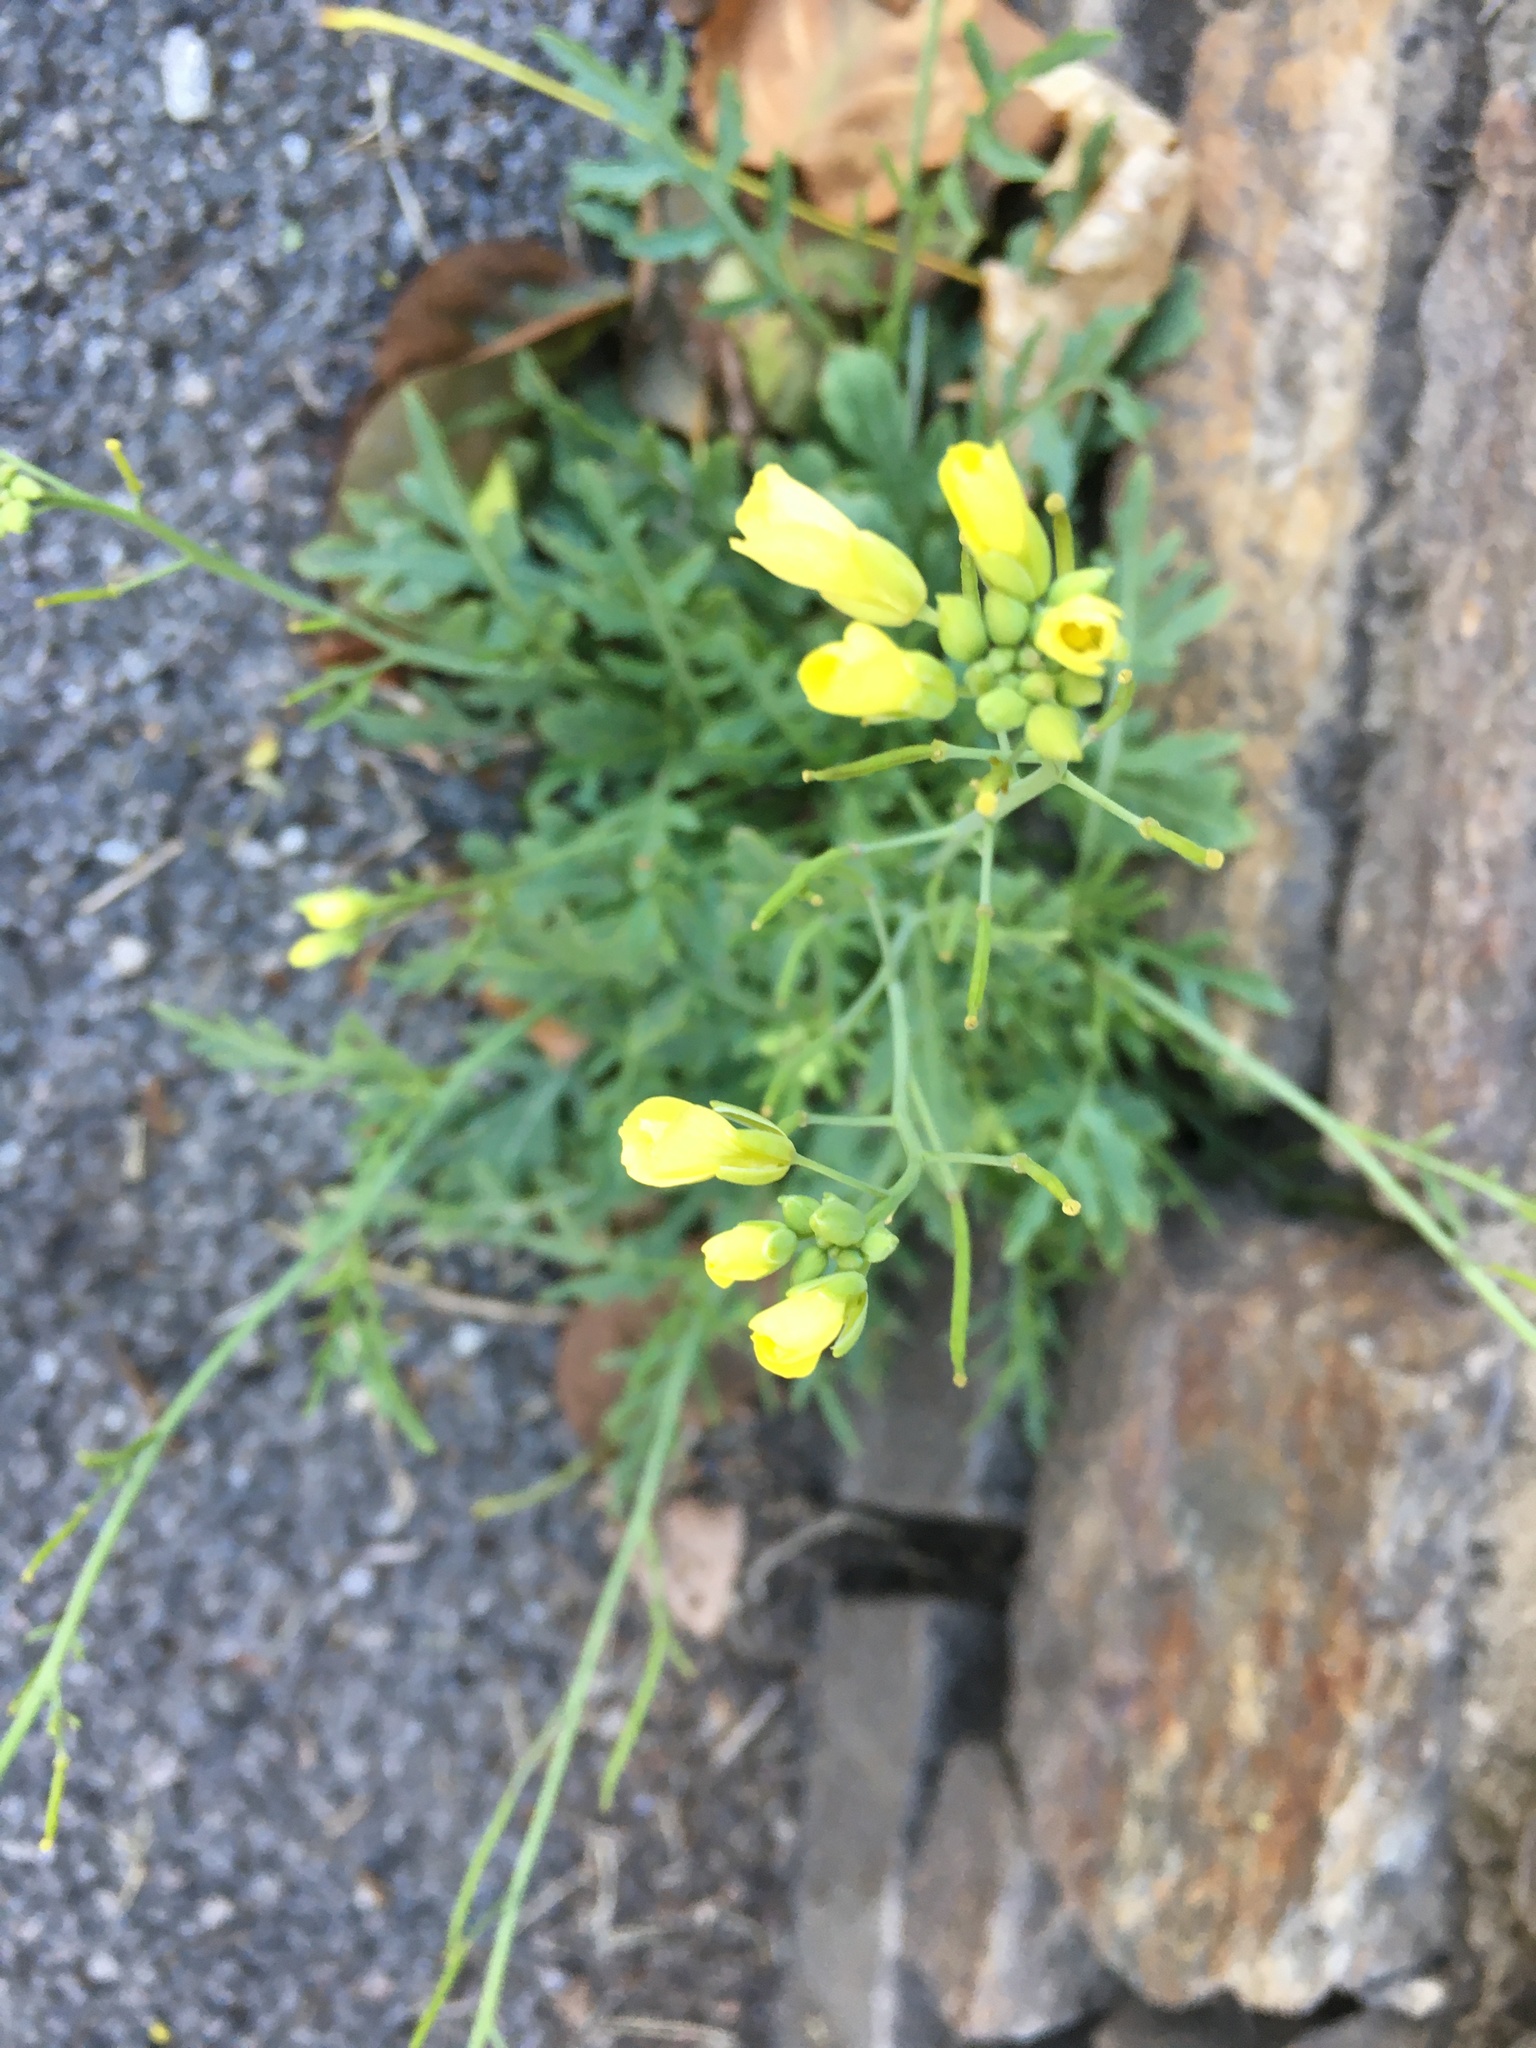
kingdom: Plantae
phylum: Tracheophyta
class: Magnoliopsida
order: Brassicales
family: Brassicaceae
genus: Diplotaxis
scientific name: Diplotaxis tenuifolia
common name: Perennial wall-rocket
